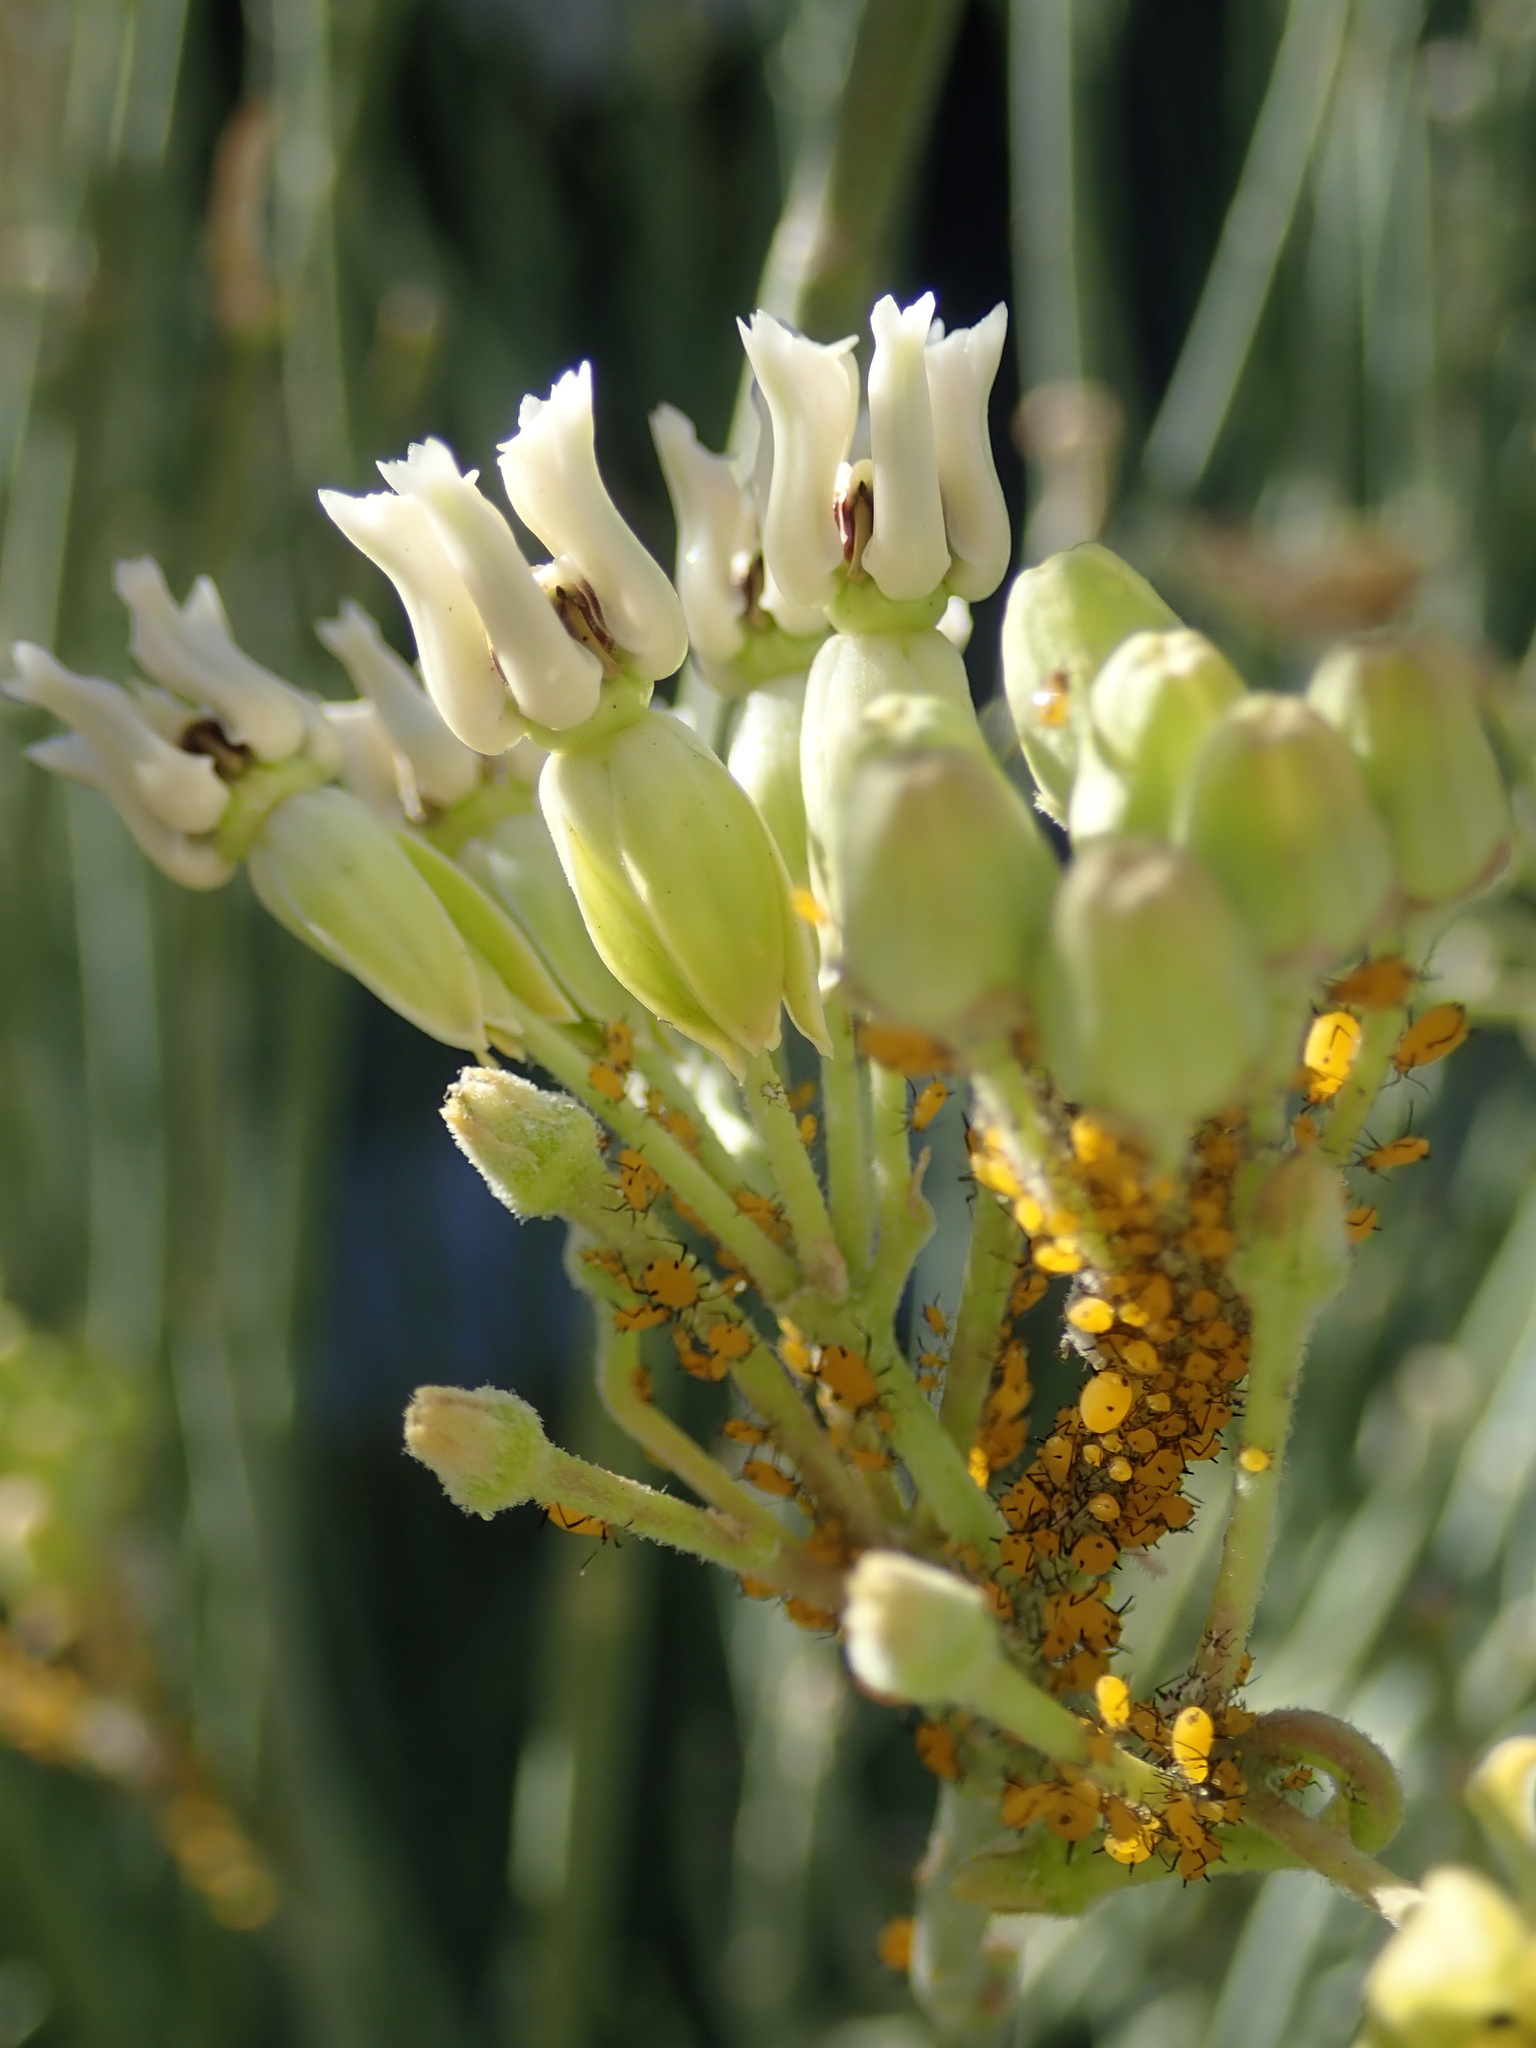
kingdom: Plantae
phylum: Tracheophyta
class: Magnoliopsida
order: Gentianales
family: Apocynaceae
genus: Asclepias
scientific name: Asclepias subulata
